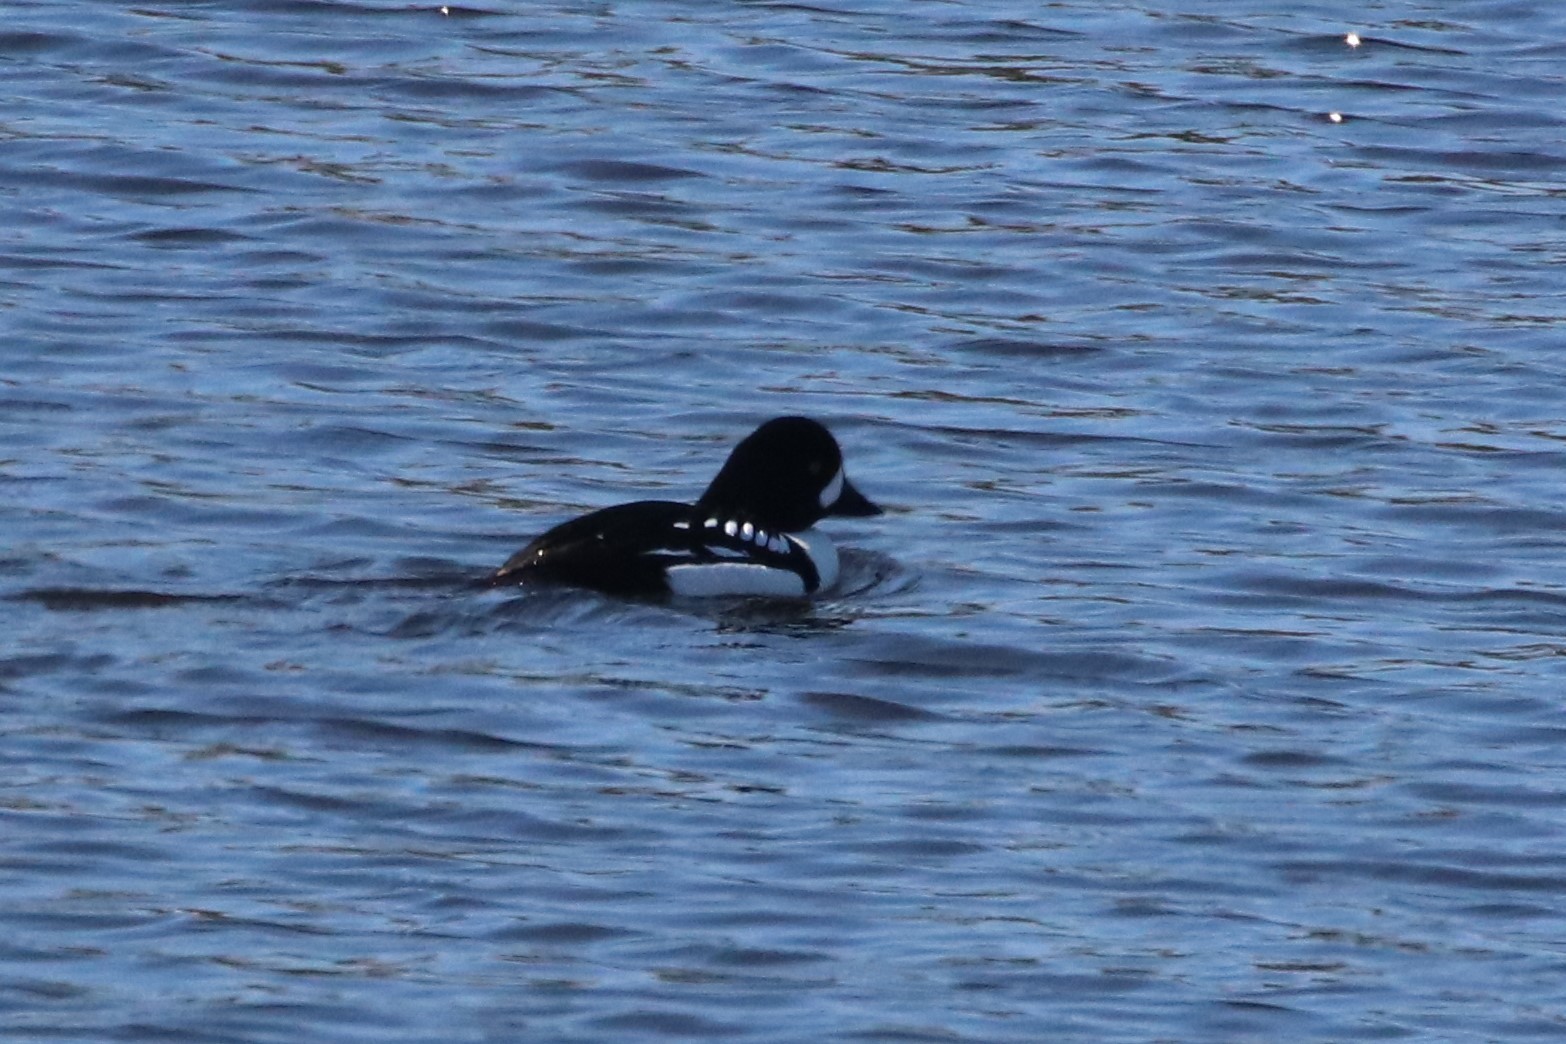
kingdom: Animalia
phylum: Chordata
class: Aves
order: Anseriformes
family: Anatidae
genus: Bucephala
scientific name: Bucephala islandica
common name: Barrow's goldeneye
